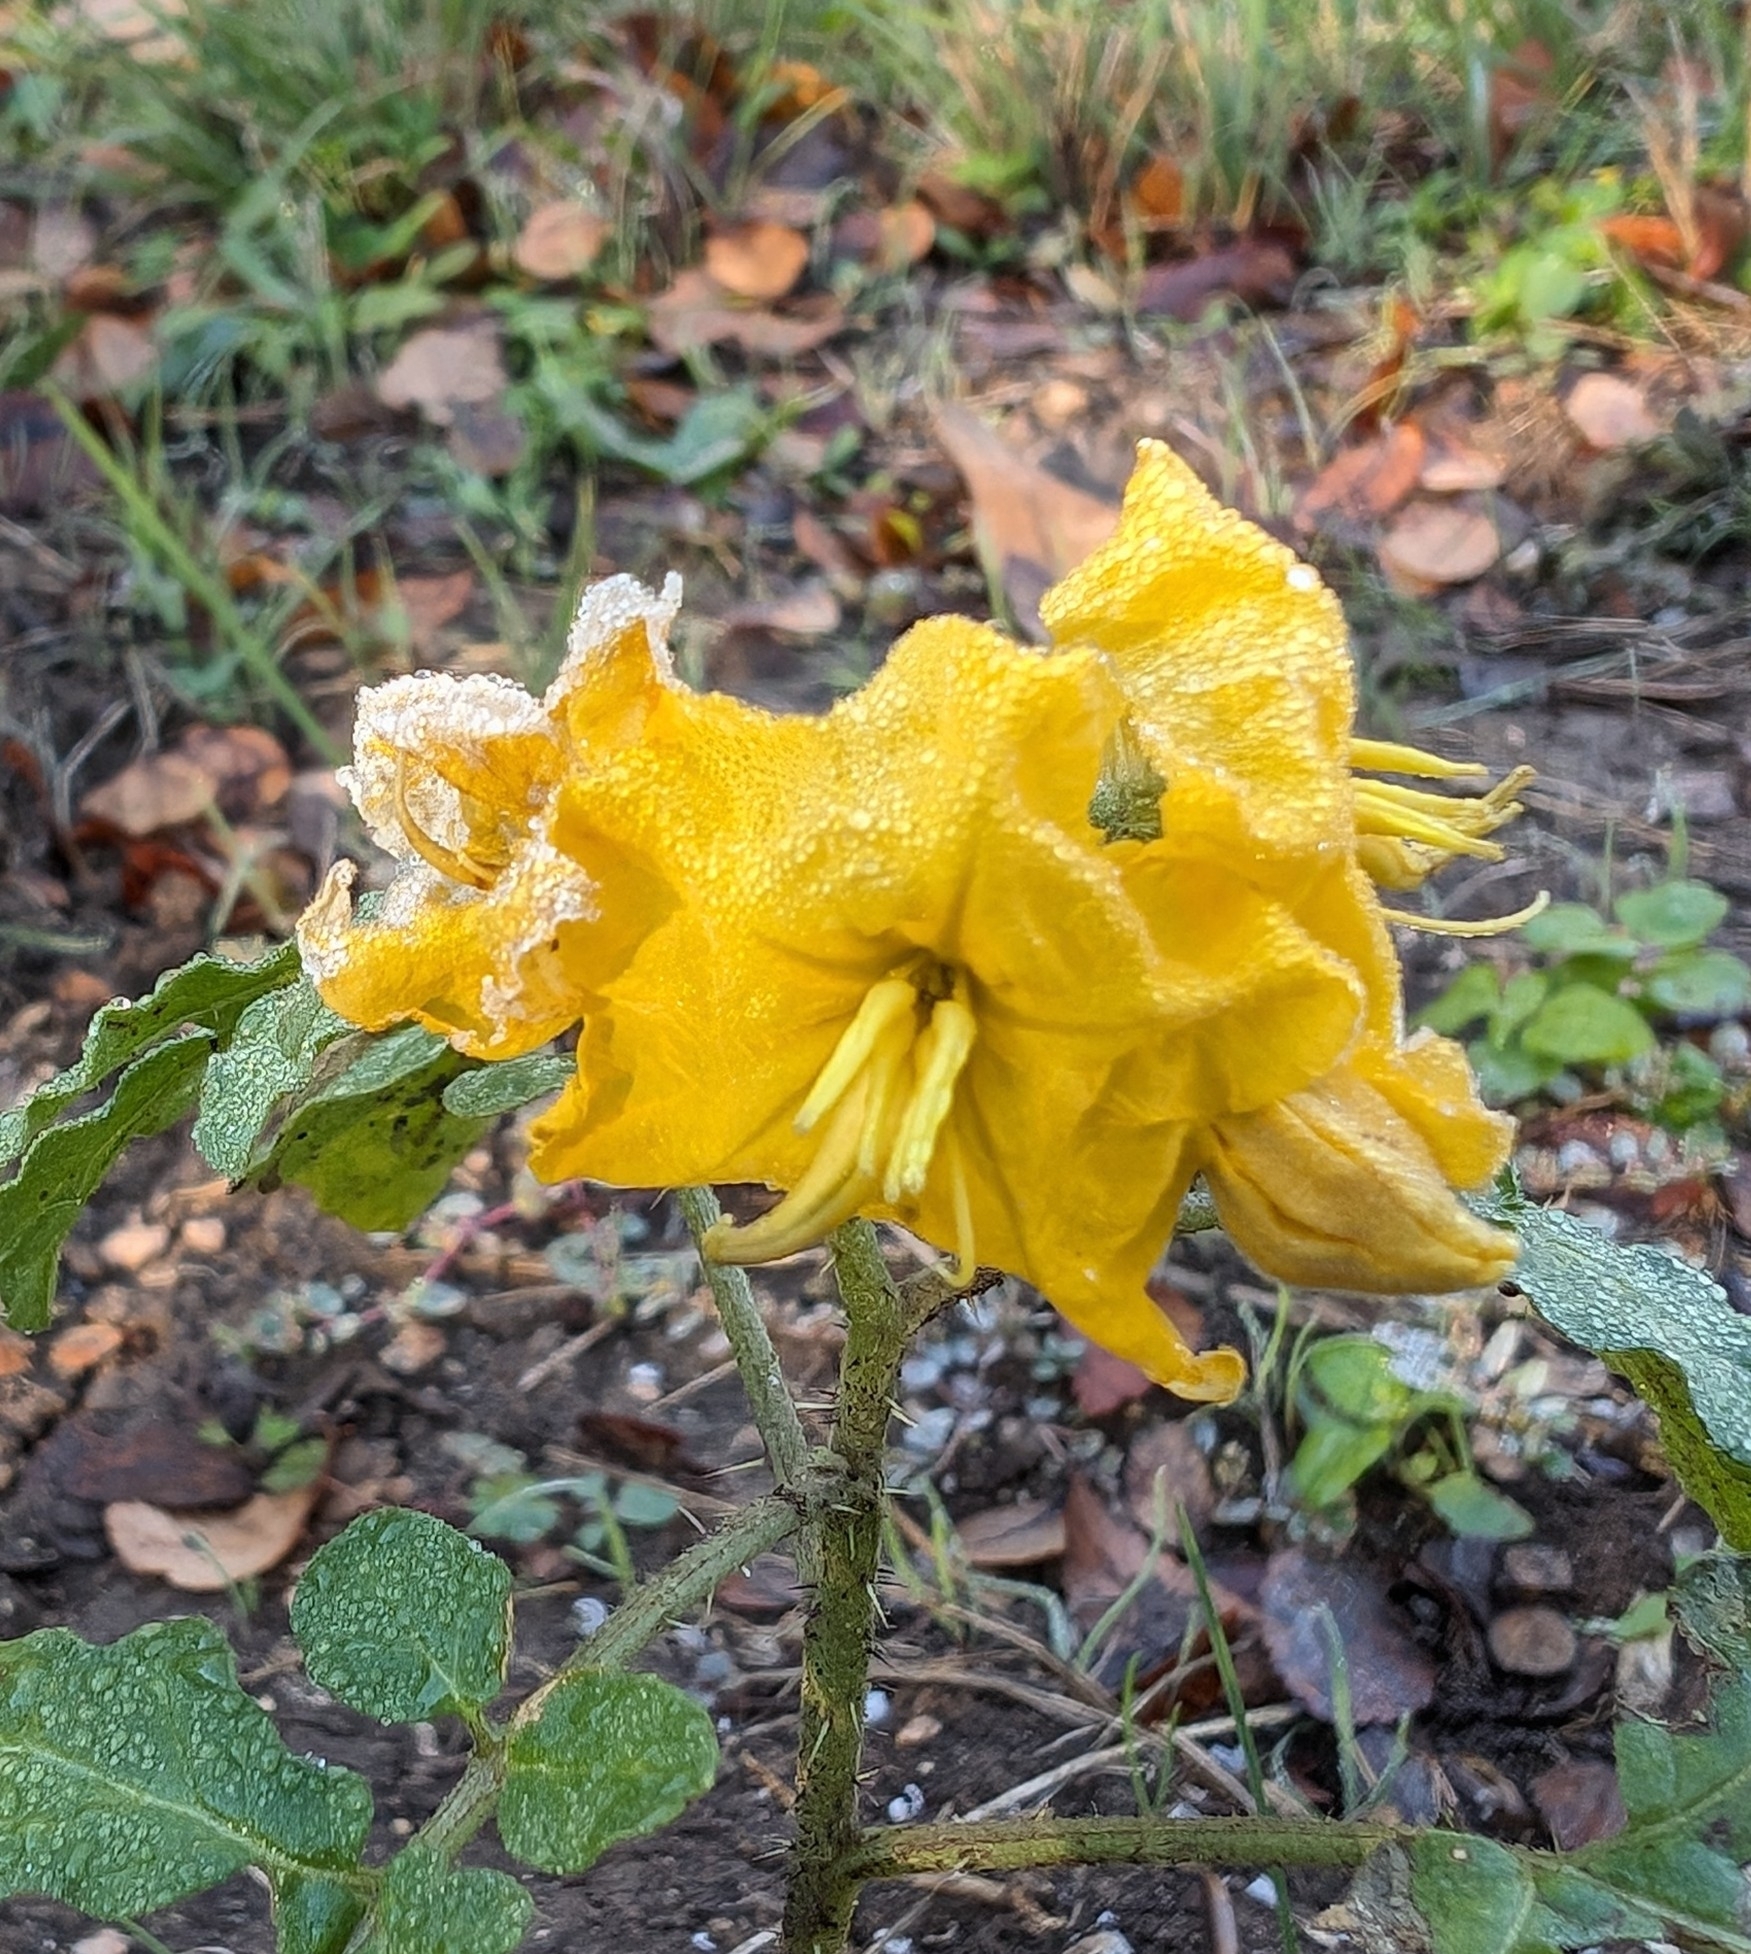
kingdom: Plantae
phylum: Tracheophyta
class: Magnoliopsida
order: Solanales
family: Solanaceae
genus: Solanum
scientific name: Solanum angustifolium
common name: Buffalobur nightshade
